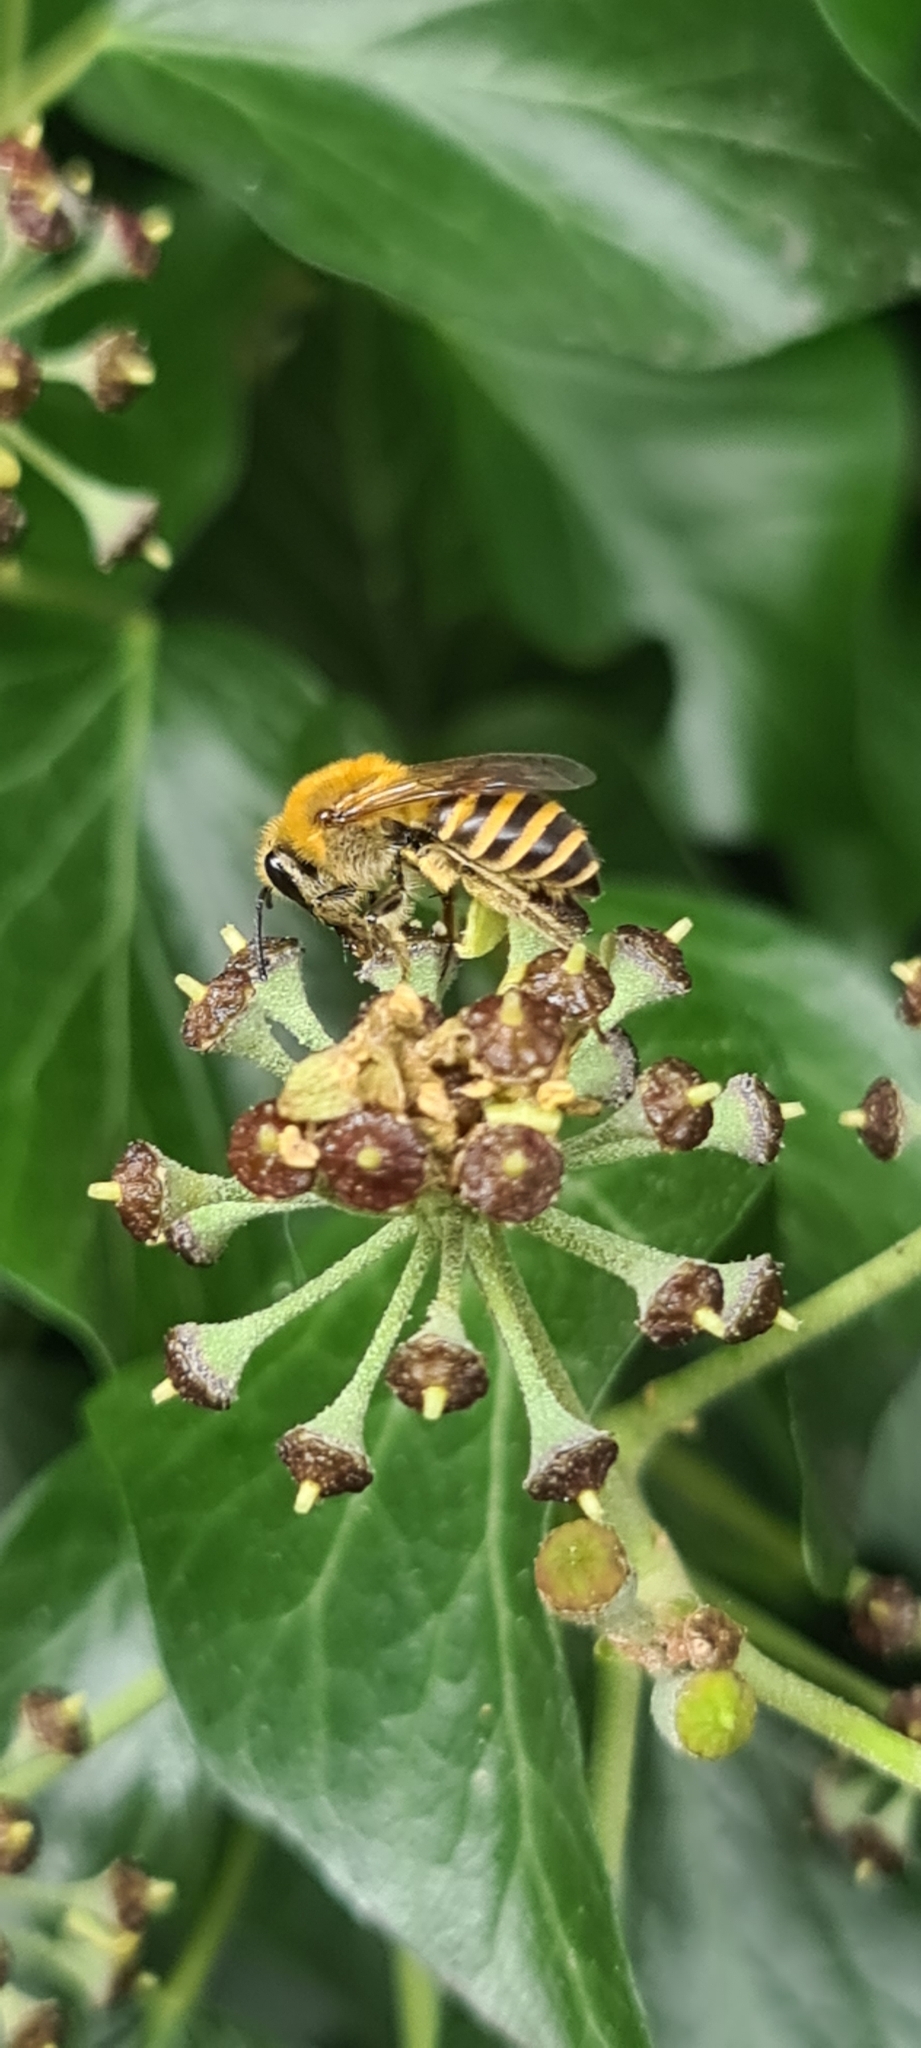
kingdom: Animalia
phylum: Arthropoda
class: Insecta
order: Hymenoptera
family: Colletidae
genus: Colletes
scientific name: Colletes hederae
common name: Ivy bee
